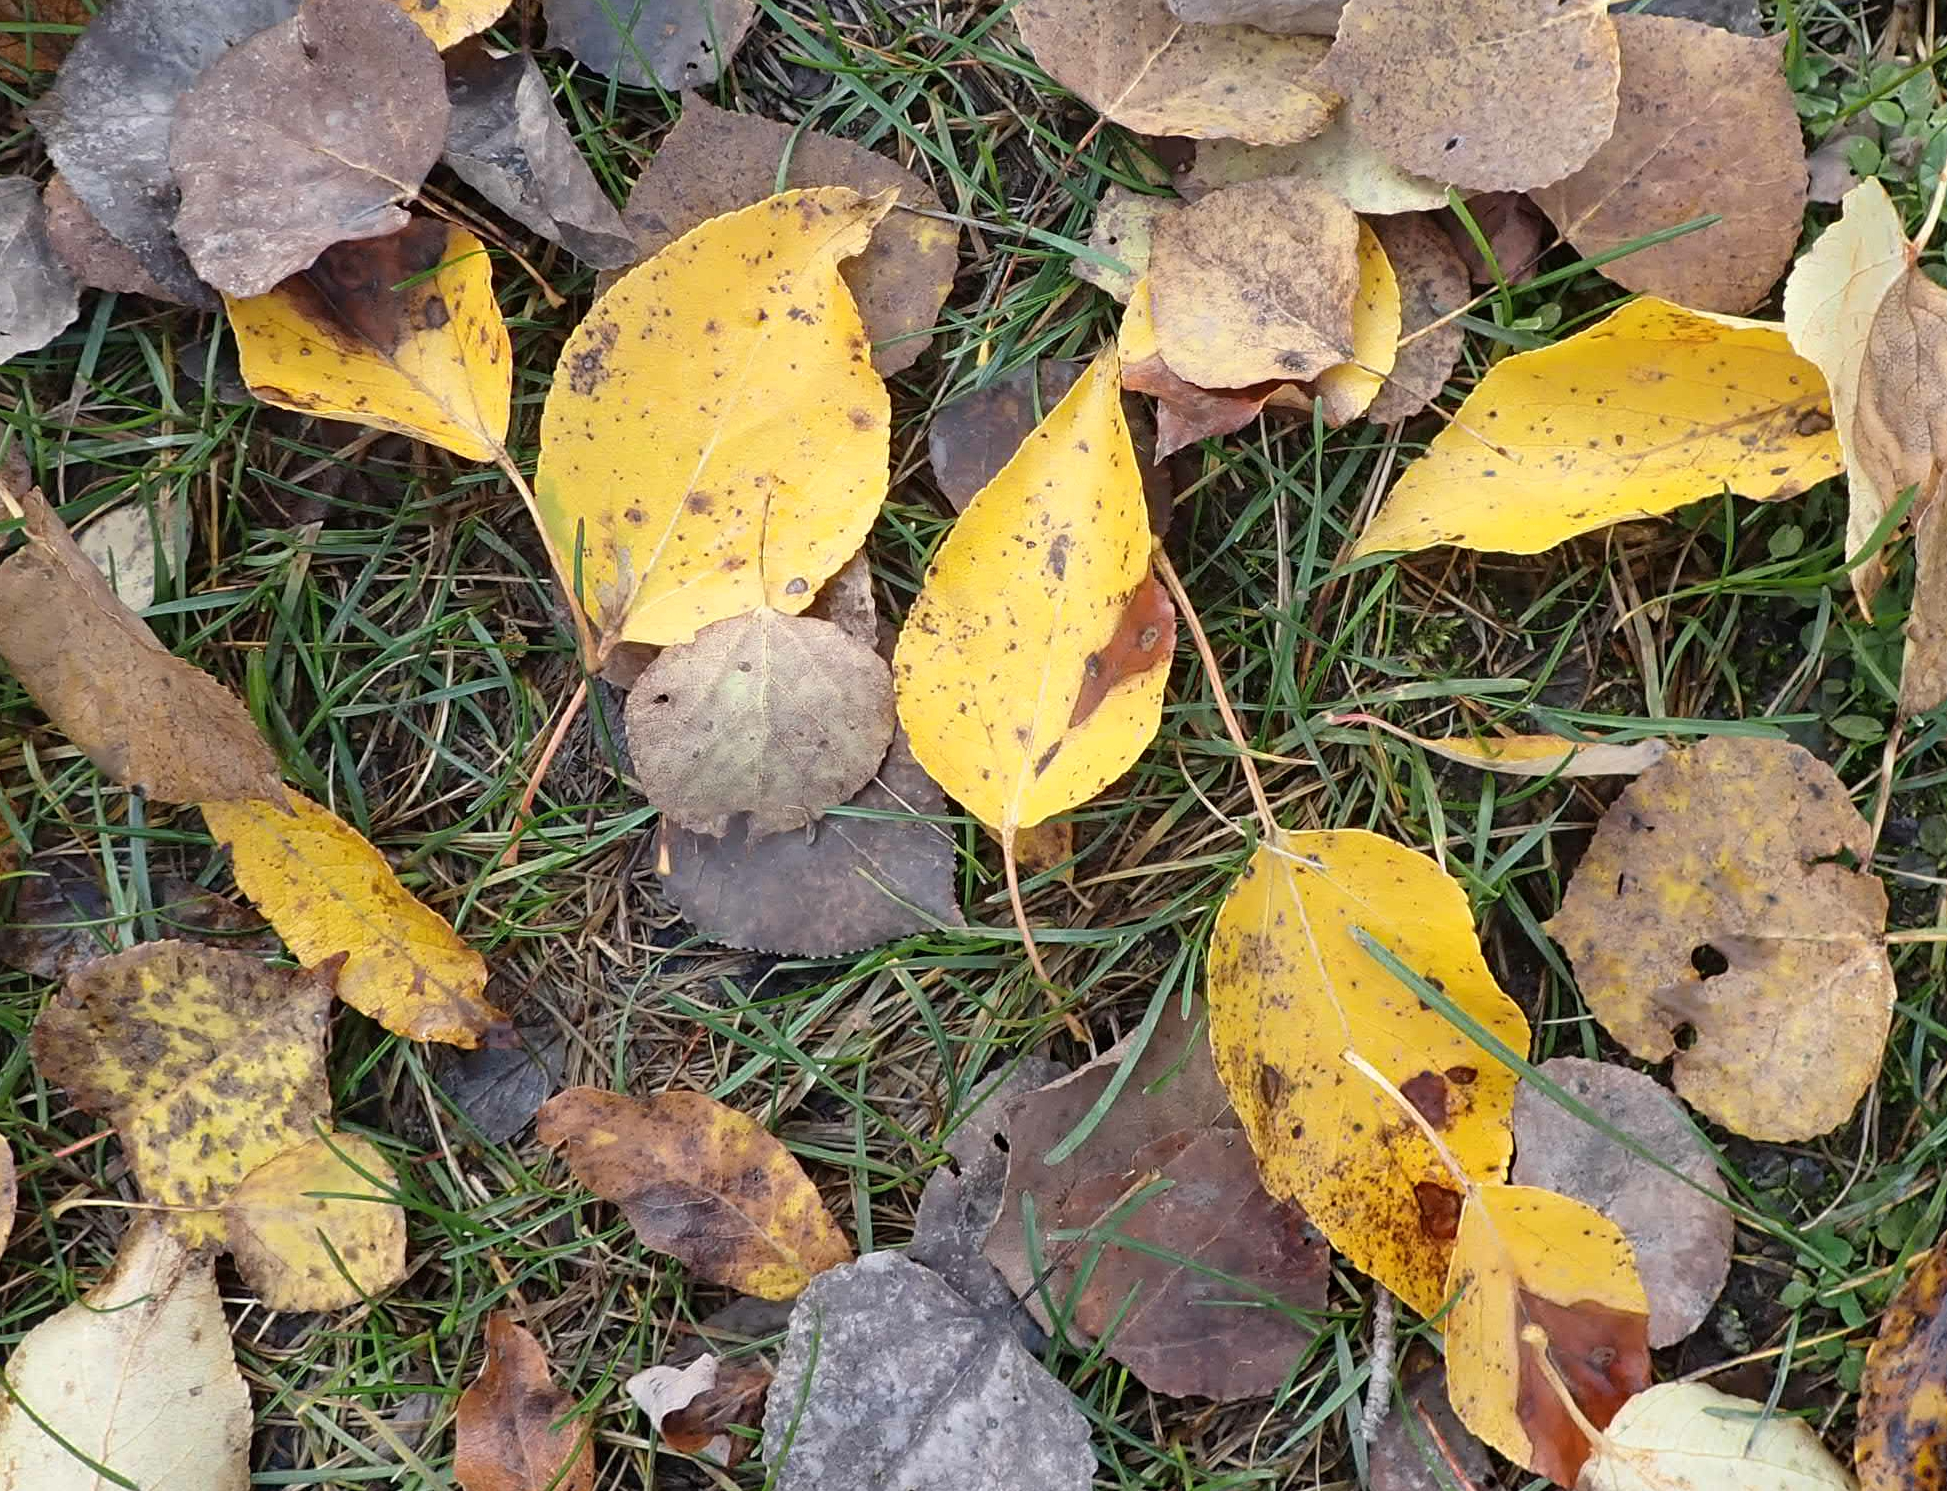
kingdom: Plantae
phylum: Tracheophyta
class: Magnoliopsida
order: Malpighiales
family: Salicaceae
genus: Populus
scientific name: Populus balsamifera
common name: Balsam poplar
